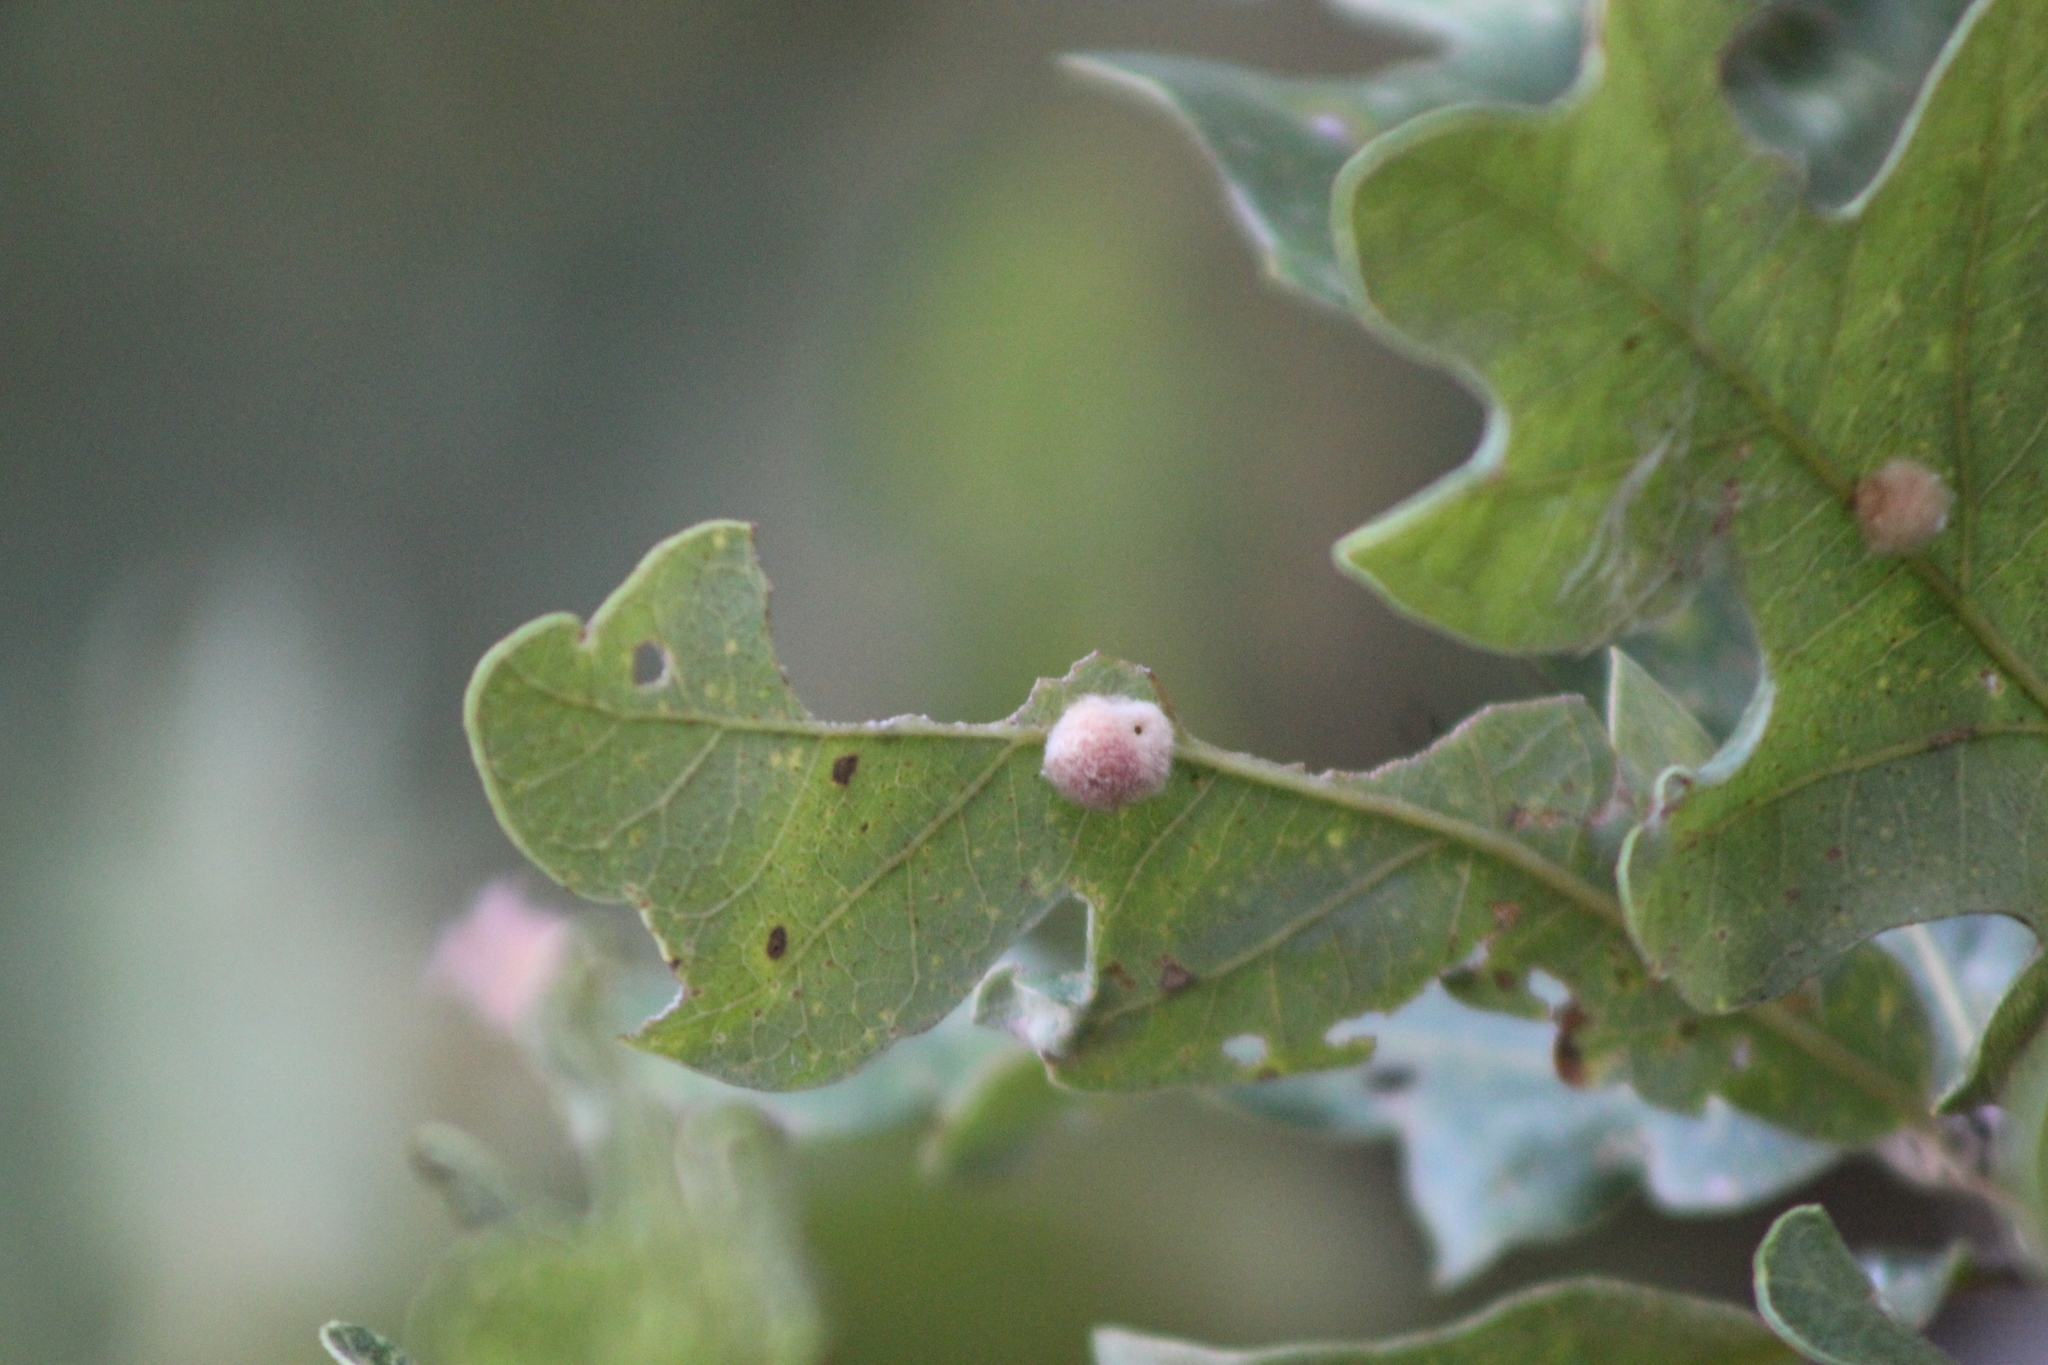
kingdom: Animalia
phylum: Arthropoda
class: Insecta
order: Hymenoptera
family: Cynipidae
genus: Andricus
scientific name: Andricus Druon ignotum
